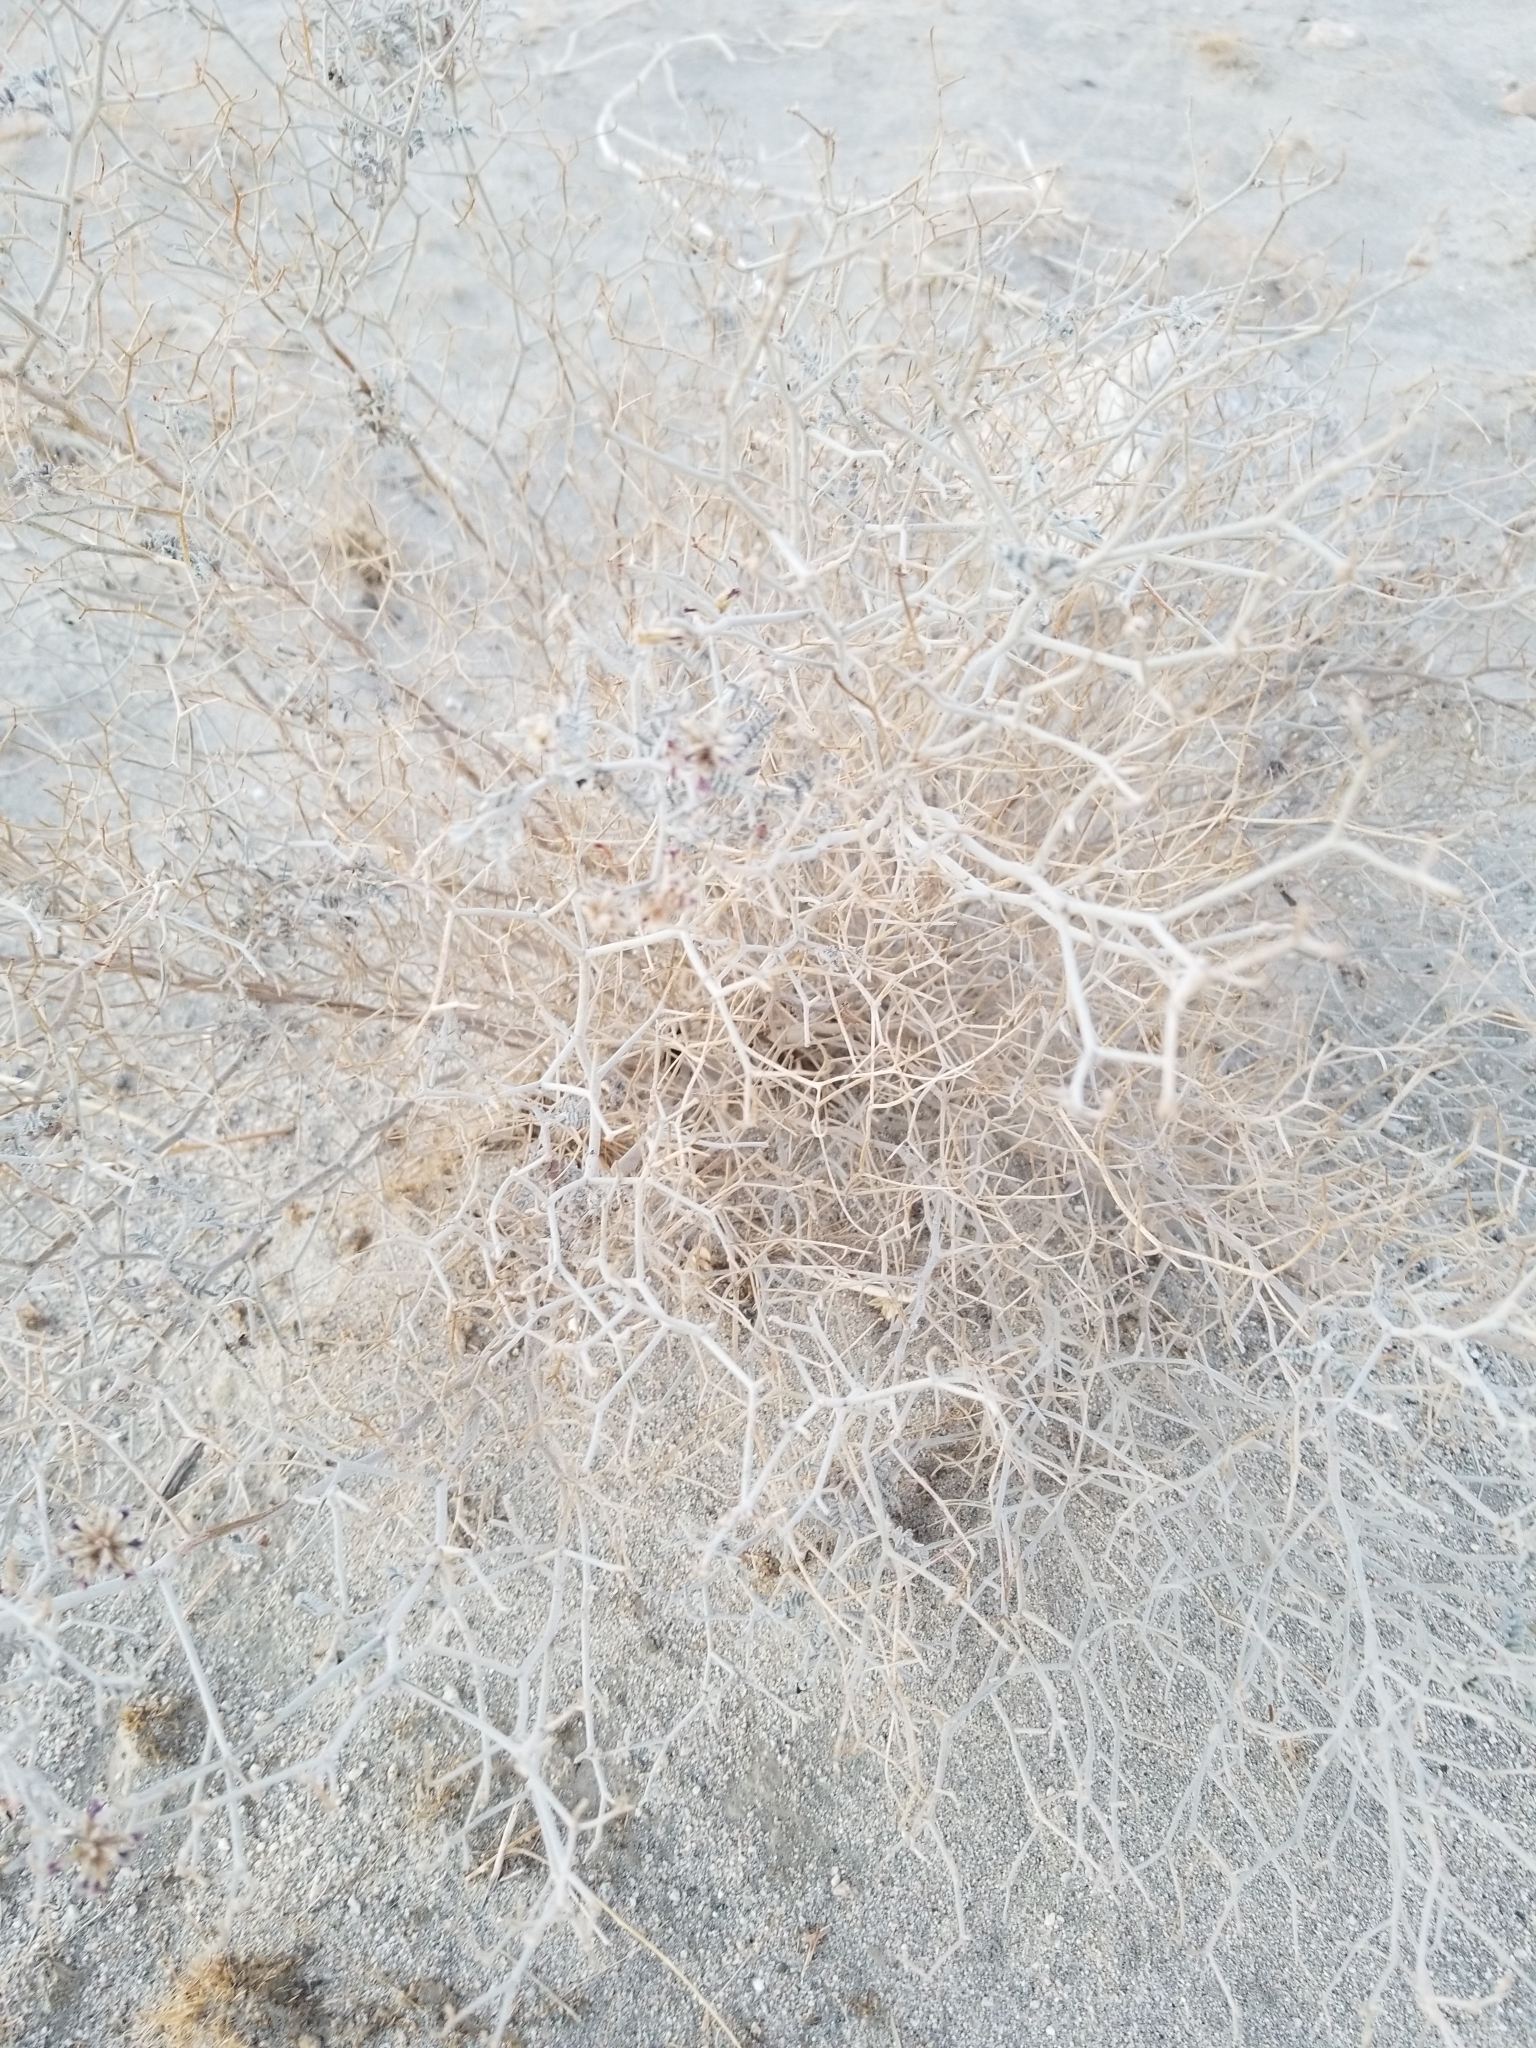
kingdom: Plantae
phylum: Tracheophyta
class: Magnoliopsida
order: Fabales
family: Fabaceae
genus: Psorothamnus
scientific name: Psorothamnus emoryi
